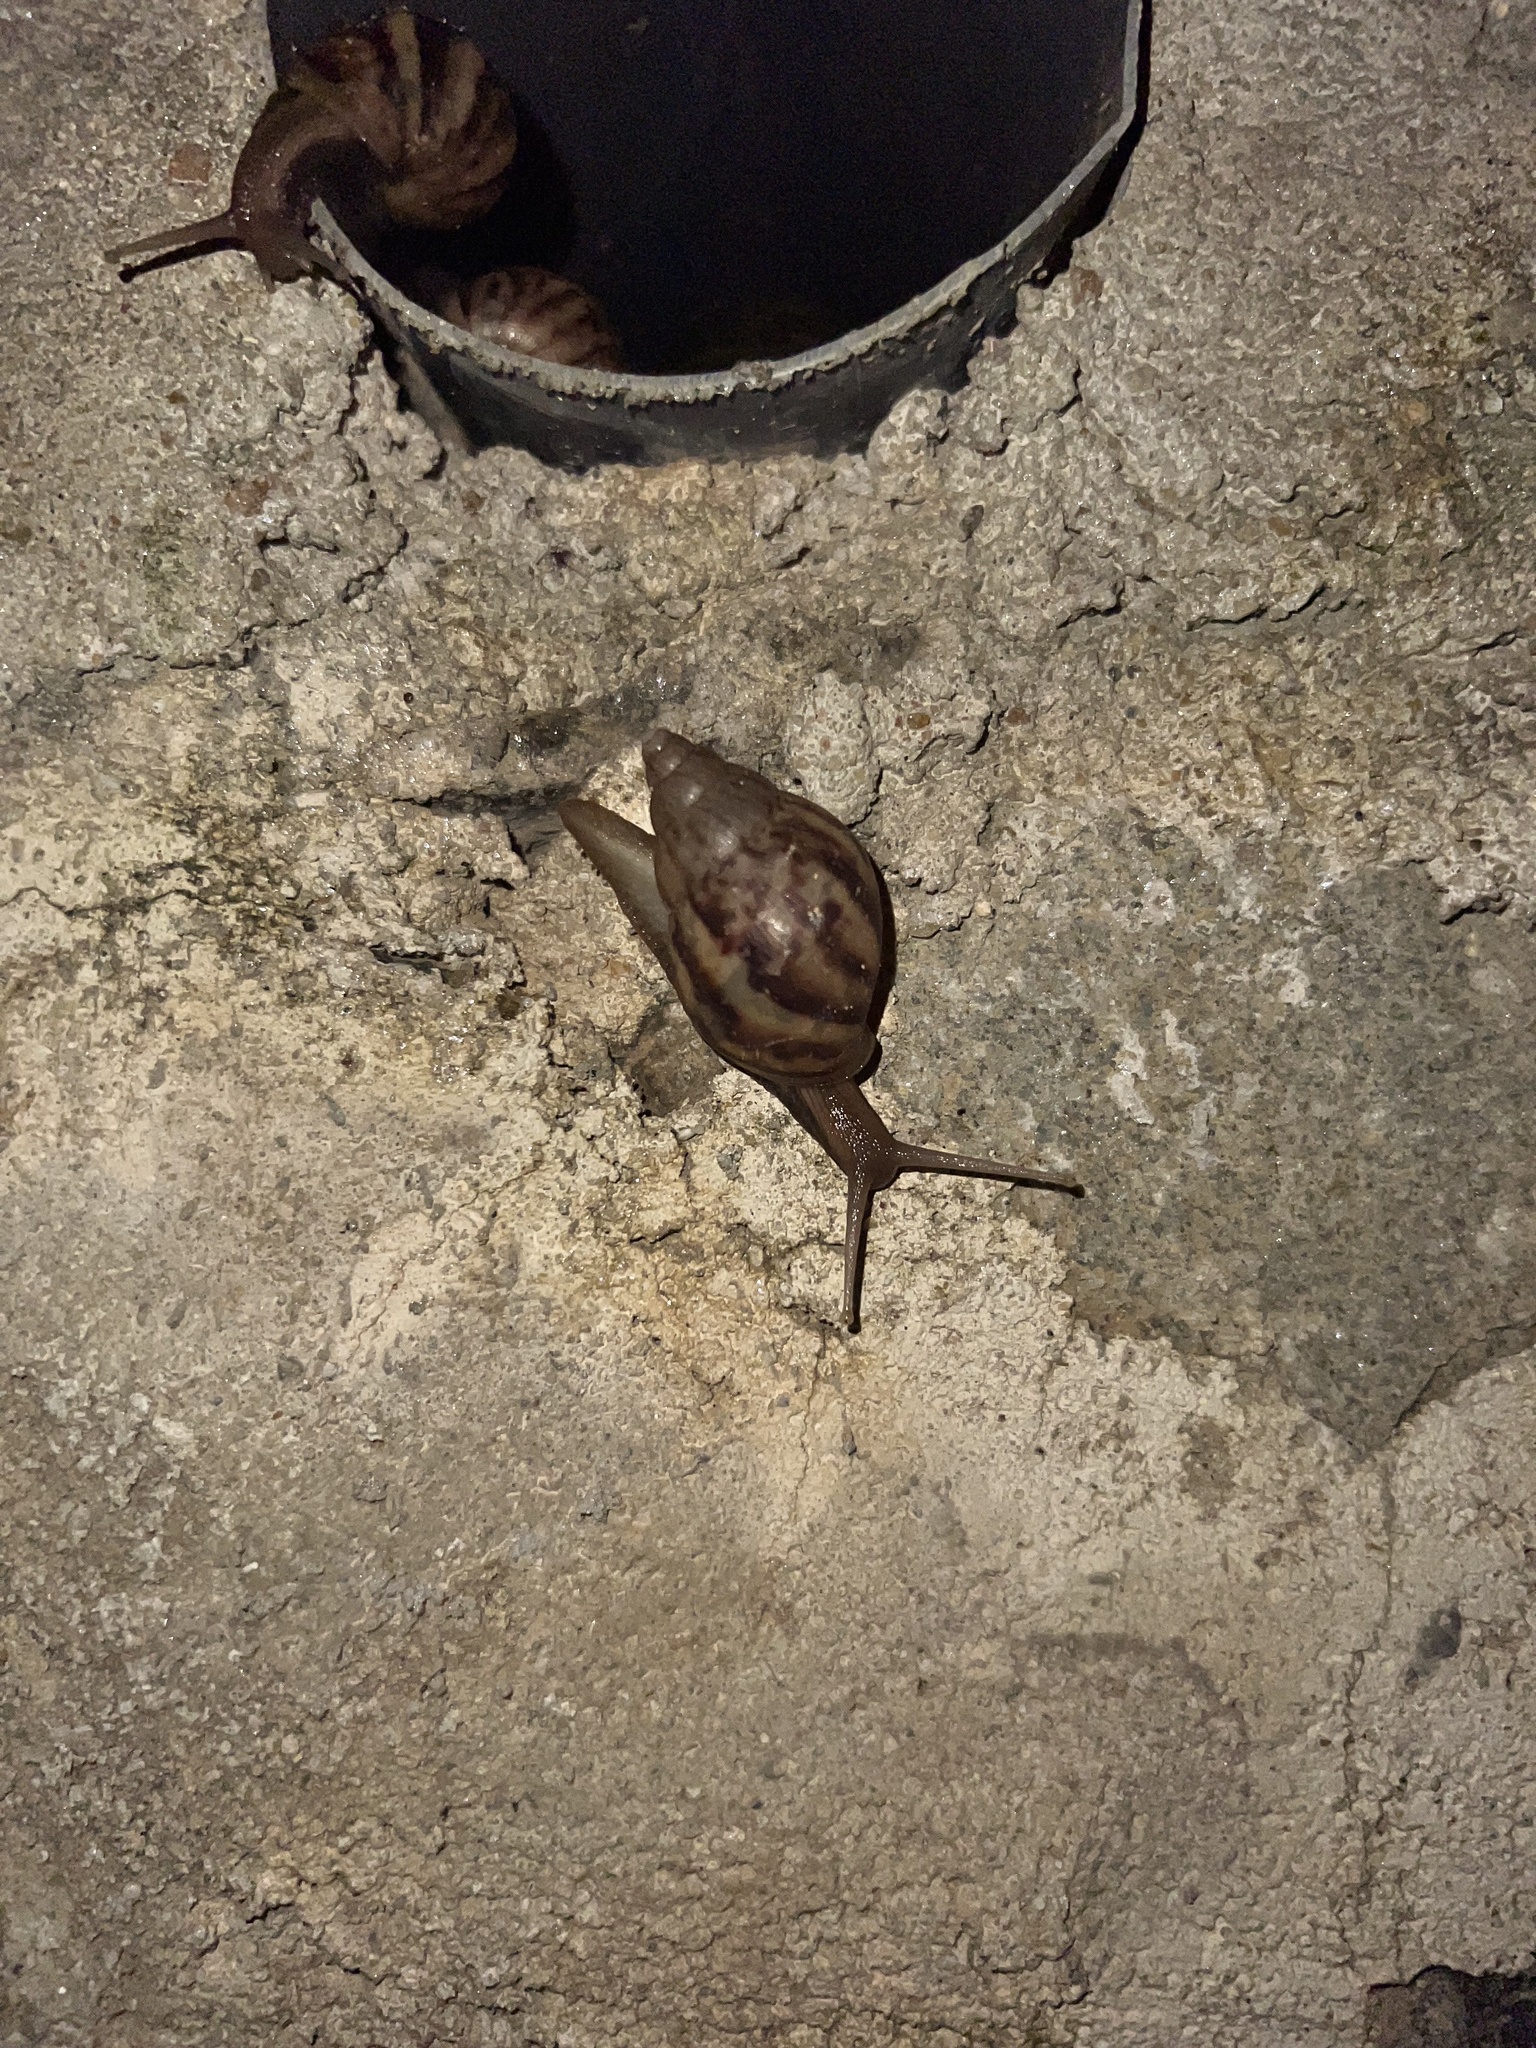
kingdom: Animalia
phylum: Mollusca
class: Gastropoda
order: Stylommatophora
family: Achatinidae
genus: Lissachatina
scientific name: Lissachatina fulica
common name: Giant african snail
